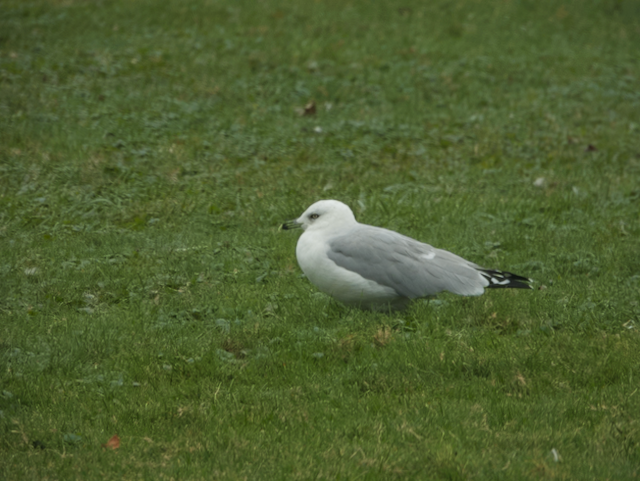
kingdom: Animalia
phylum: Chordata
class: Aves
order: Charadriiformes
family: Laridae
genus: Larus
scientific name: Larus delawarensis
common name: Ring-billed gull
